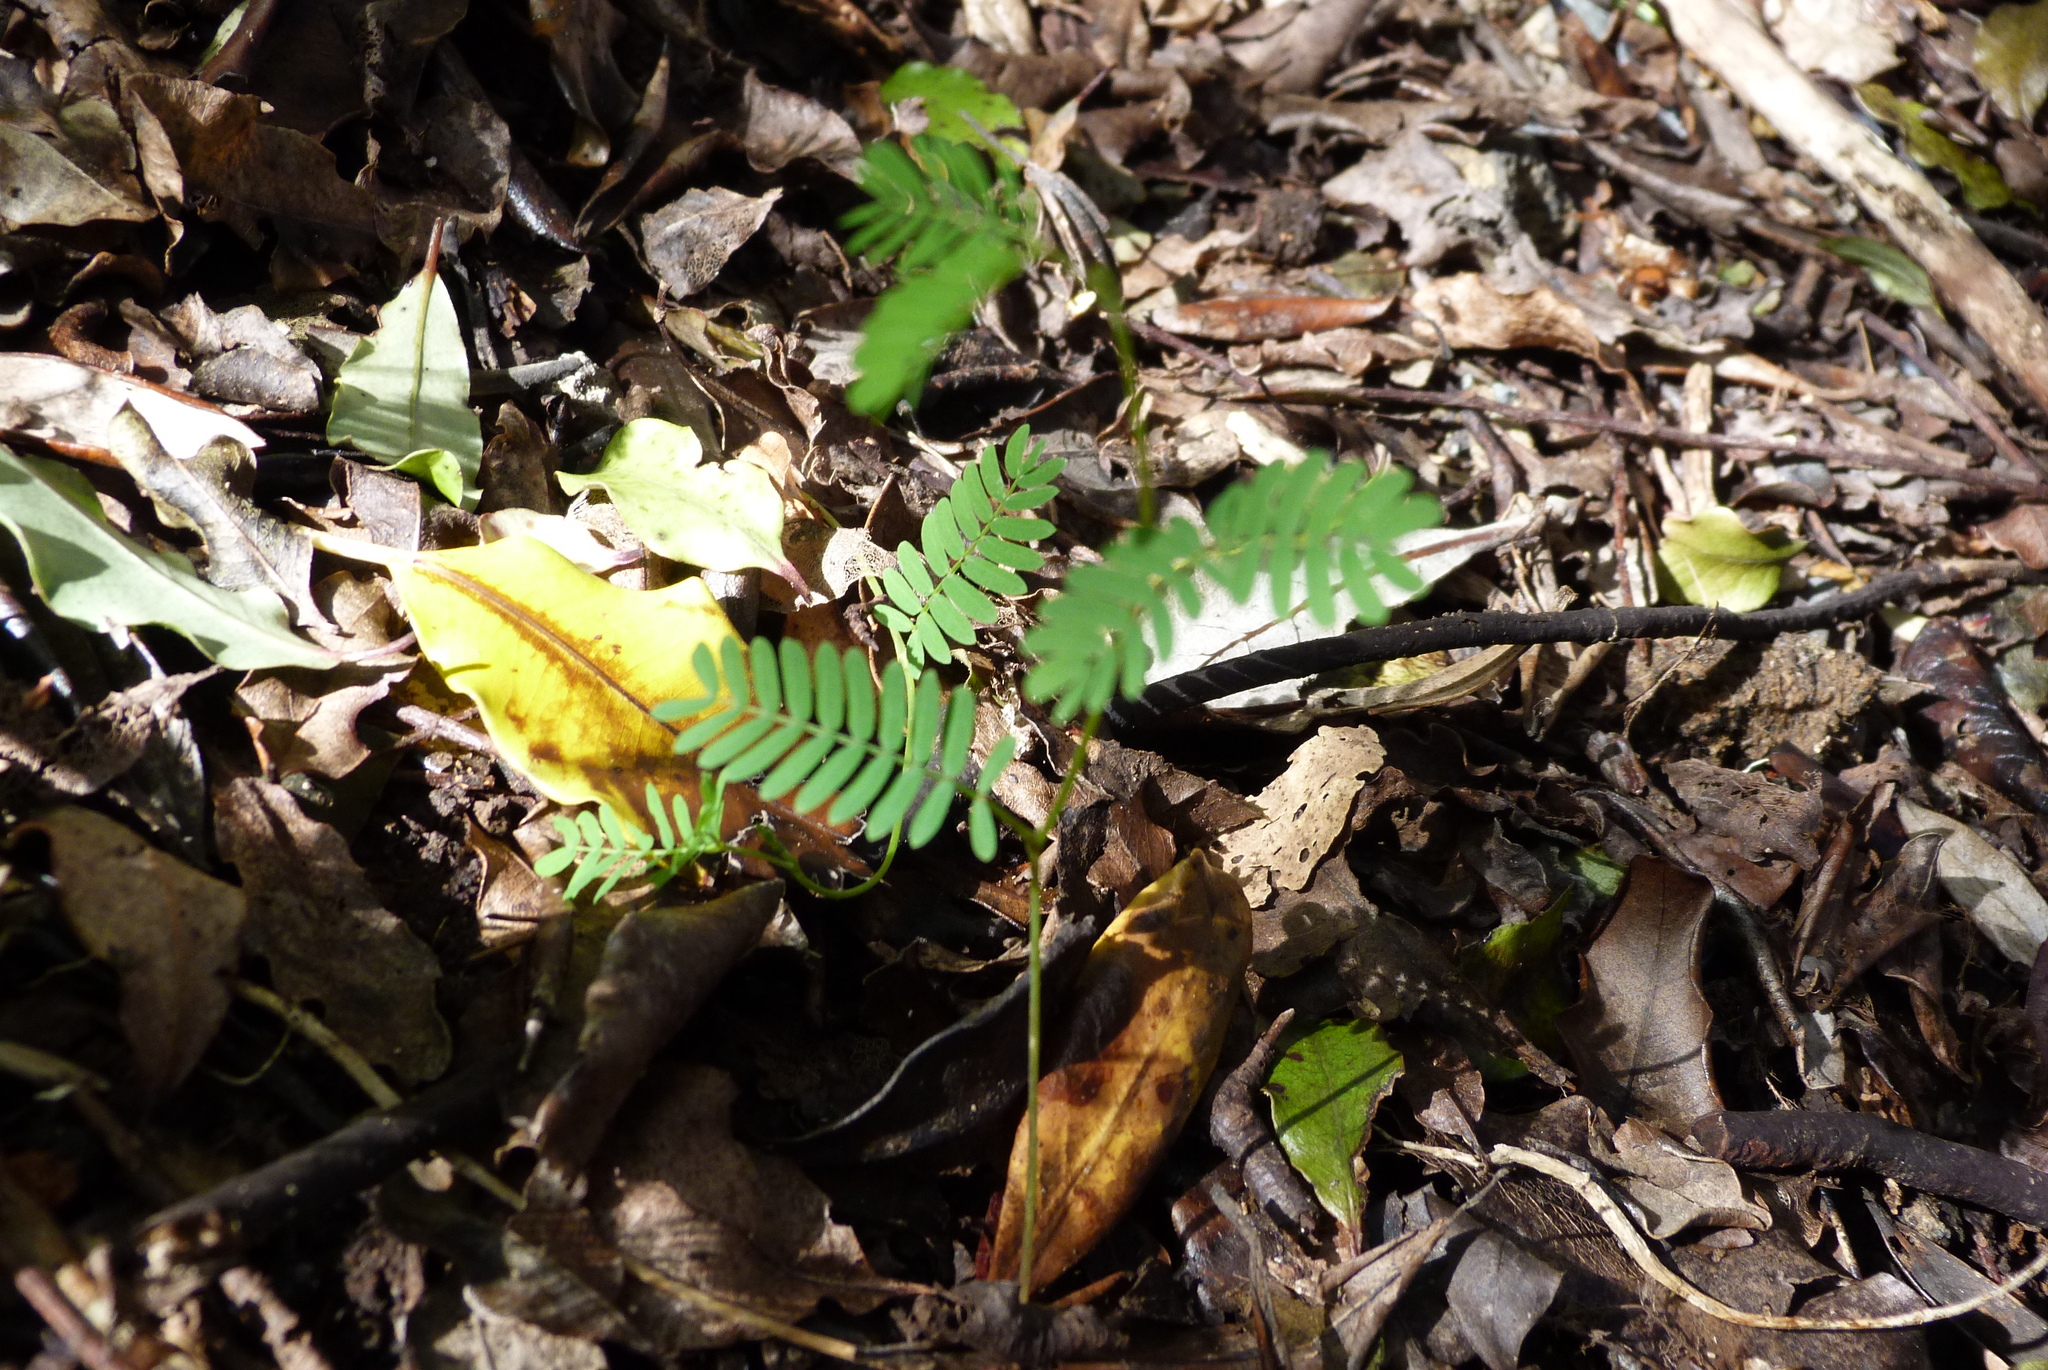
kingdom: Plantae
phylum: Tracheophyta
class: Magnoliopsida
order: Fabales
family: Fabaceae
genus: Paraserianthes
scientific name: Paraserianthes lophantha
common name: Plume albizia
